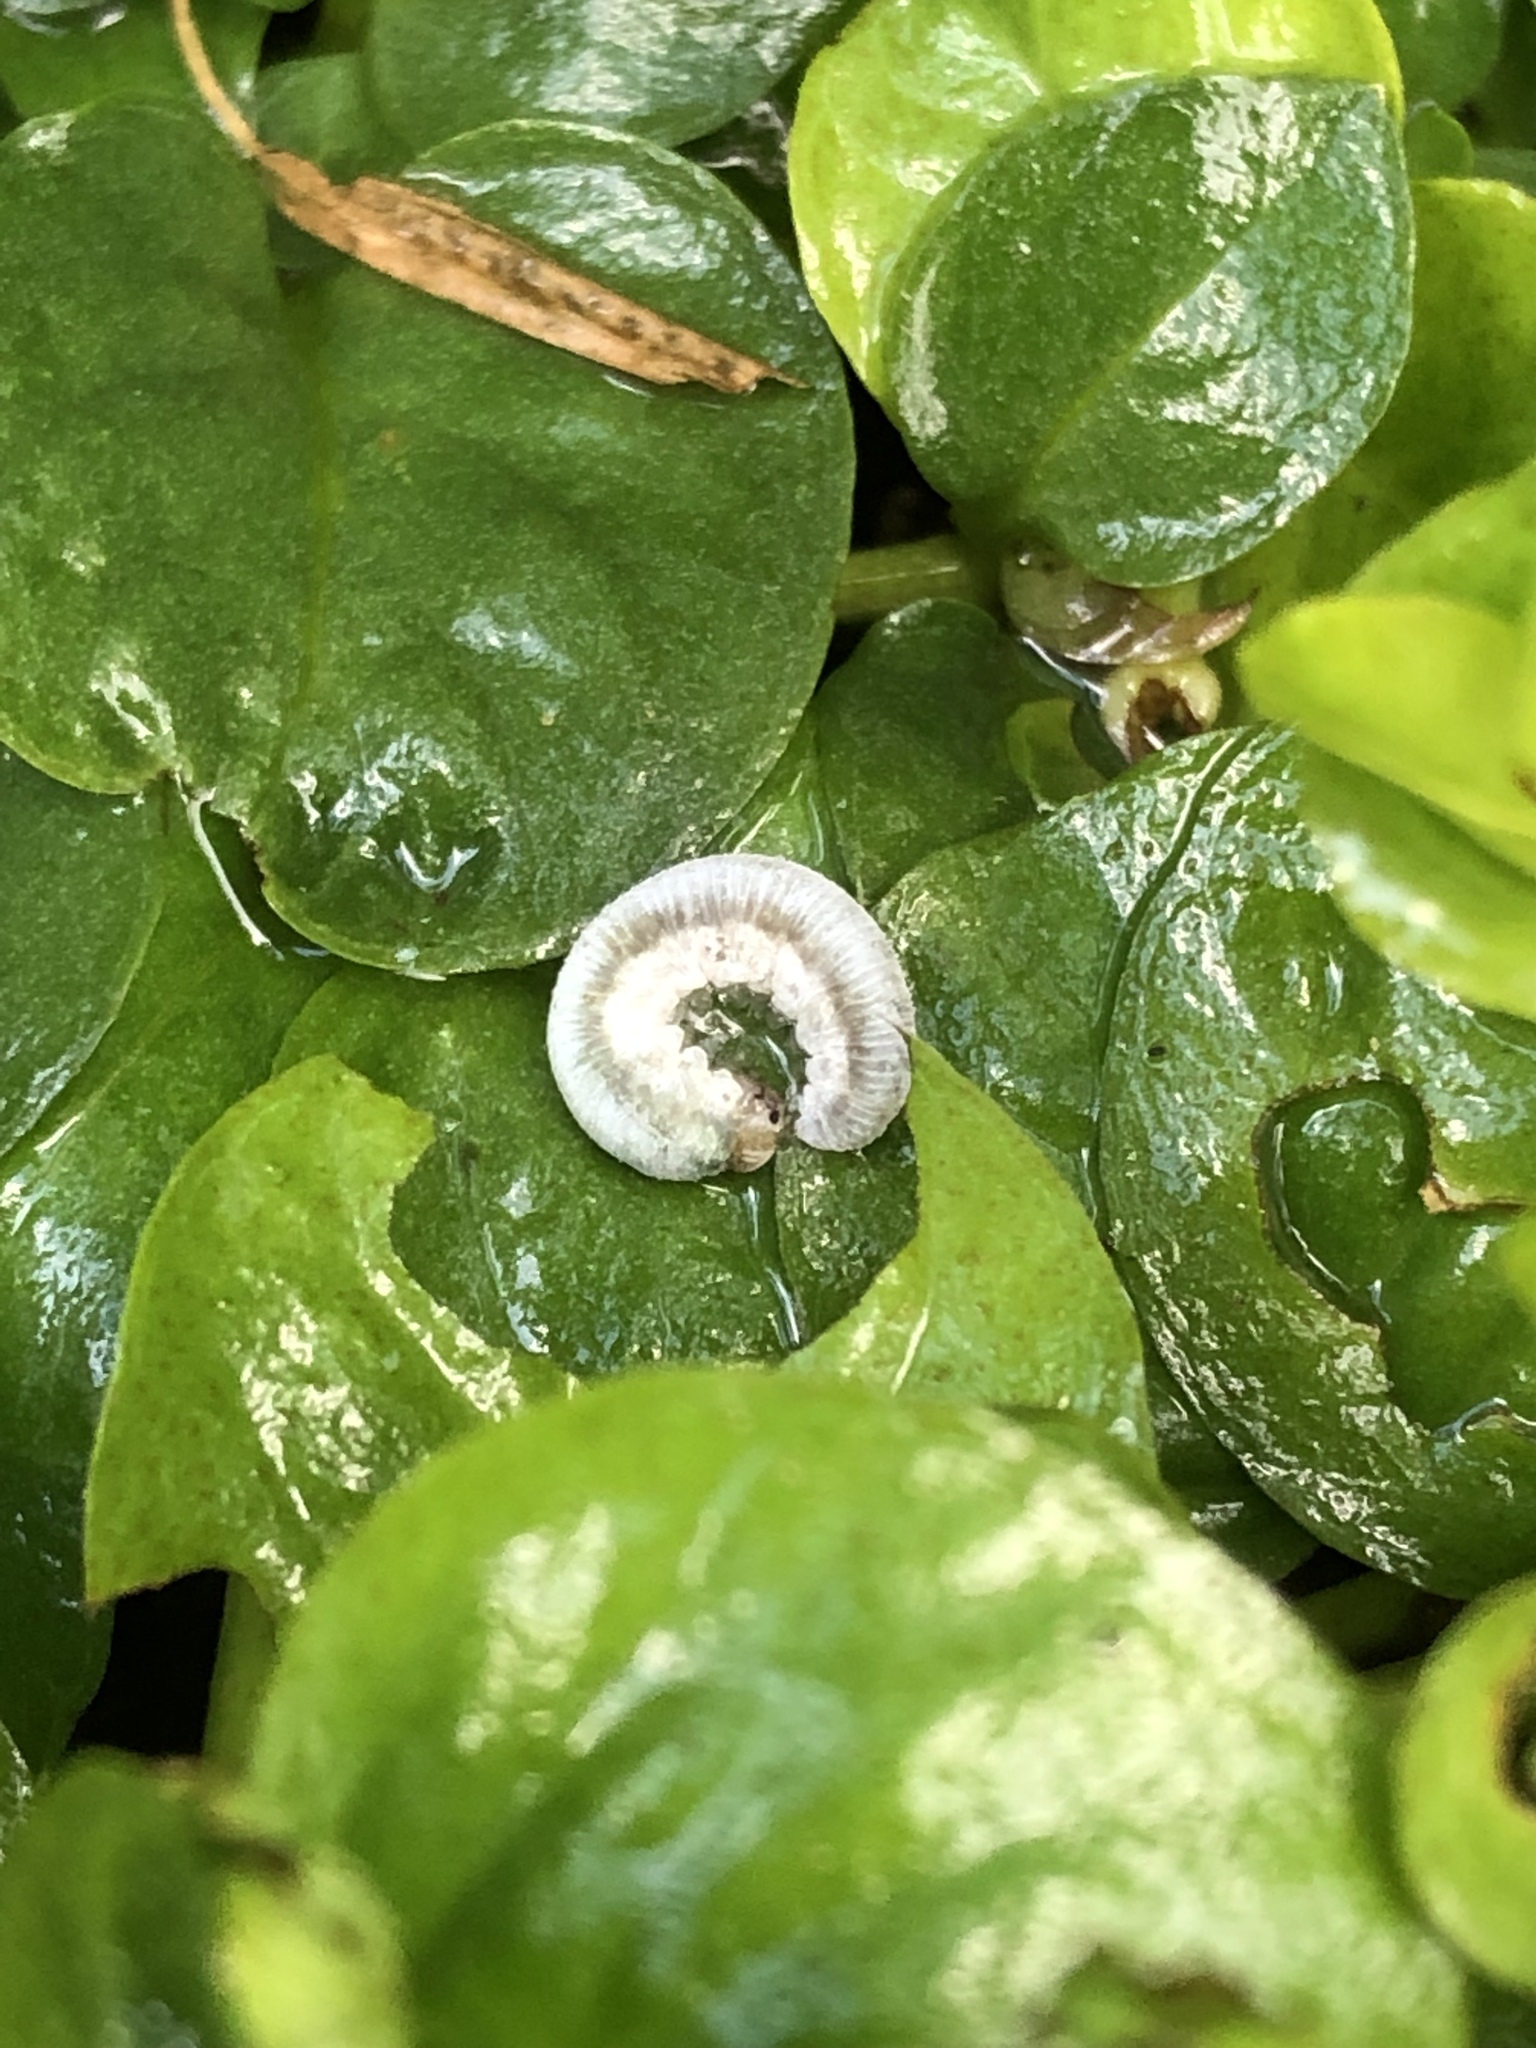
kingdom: Animalia
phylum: Arthropoda
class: Insecta
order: Hymenoptera
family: Tenthredinidae
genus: Monostegia
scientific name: Monostegia abdominalis
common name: Tenthredid wasp
